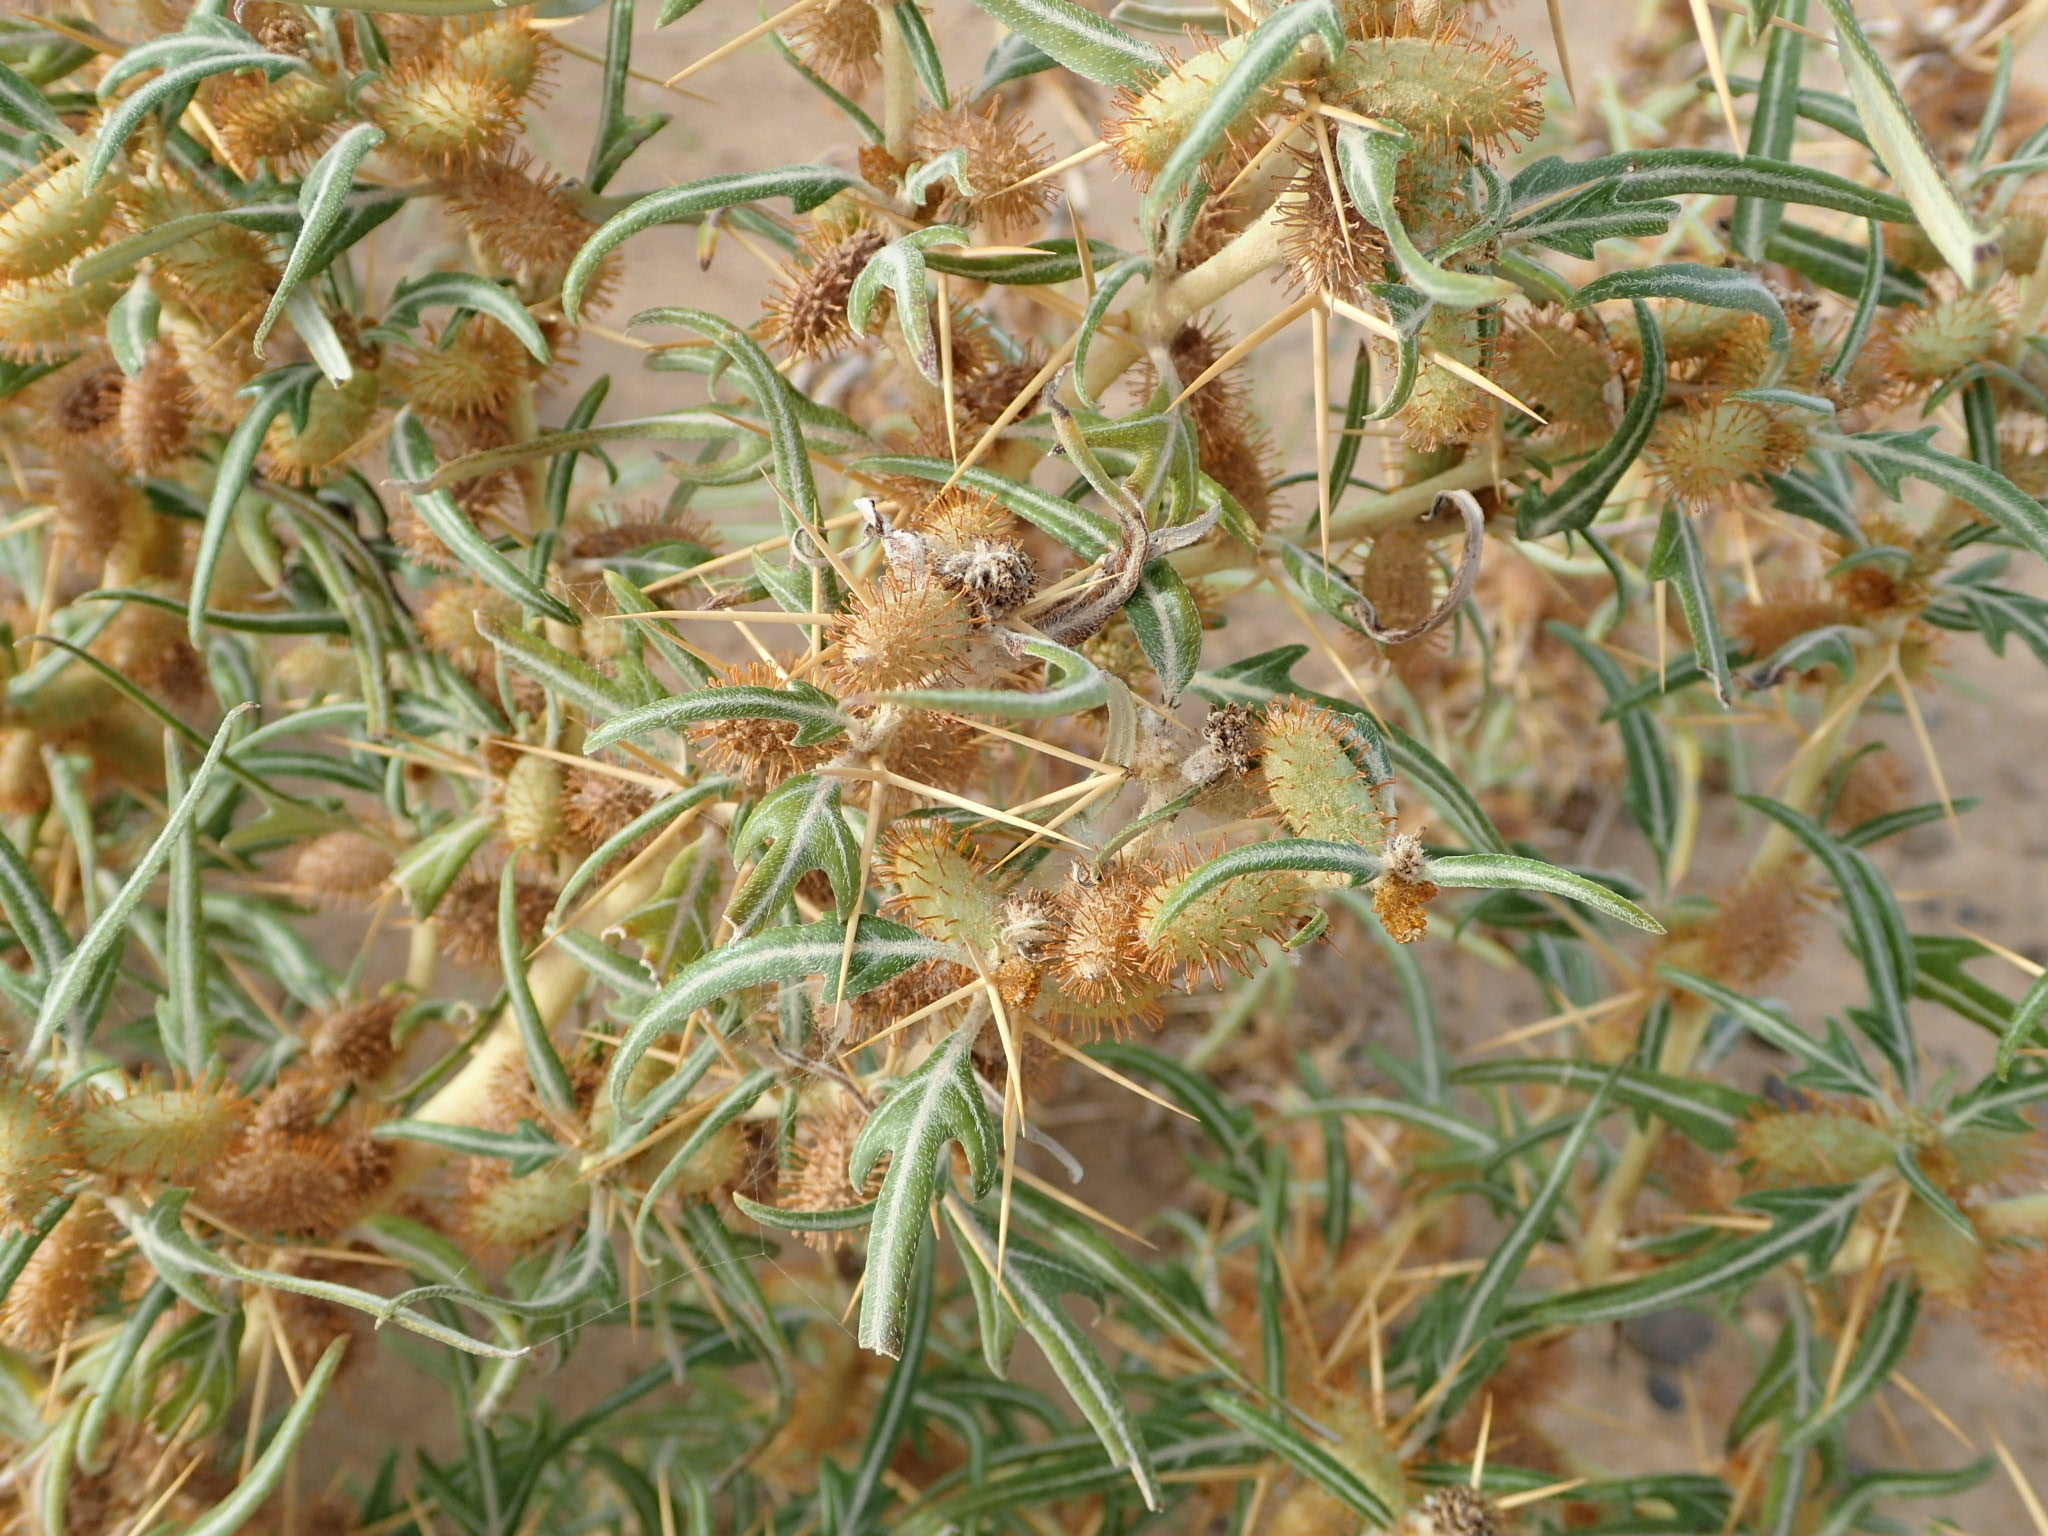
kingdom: Plantae
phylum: Tracheophyta
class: Magnoliopsida
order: Asterales
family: Asteraceae
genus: Xanthium
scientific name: Xanthium spinosum
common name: Spiny cocklebur
